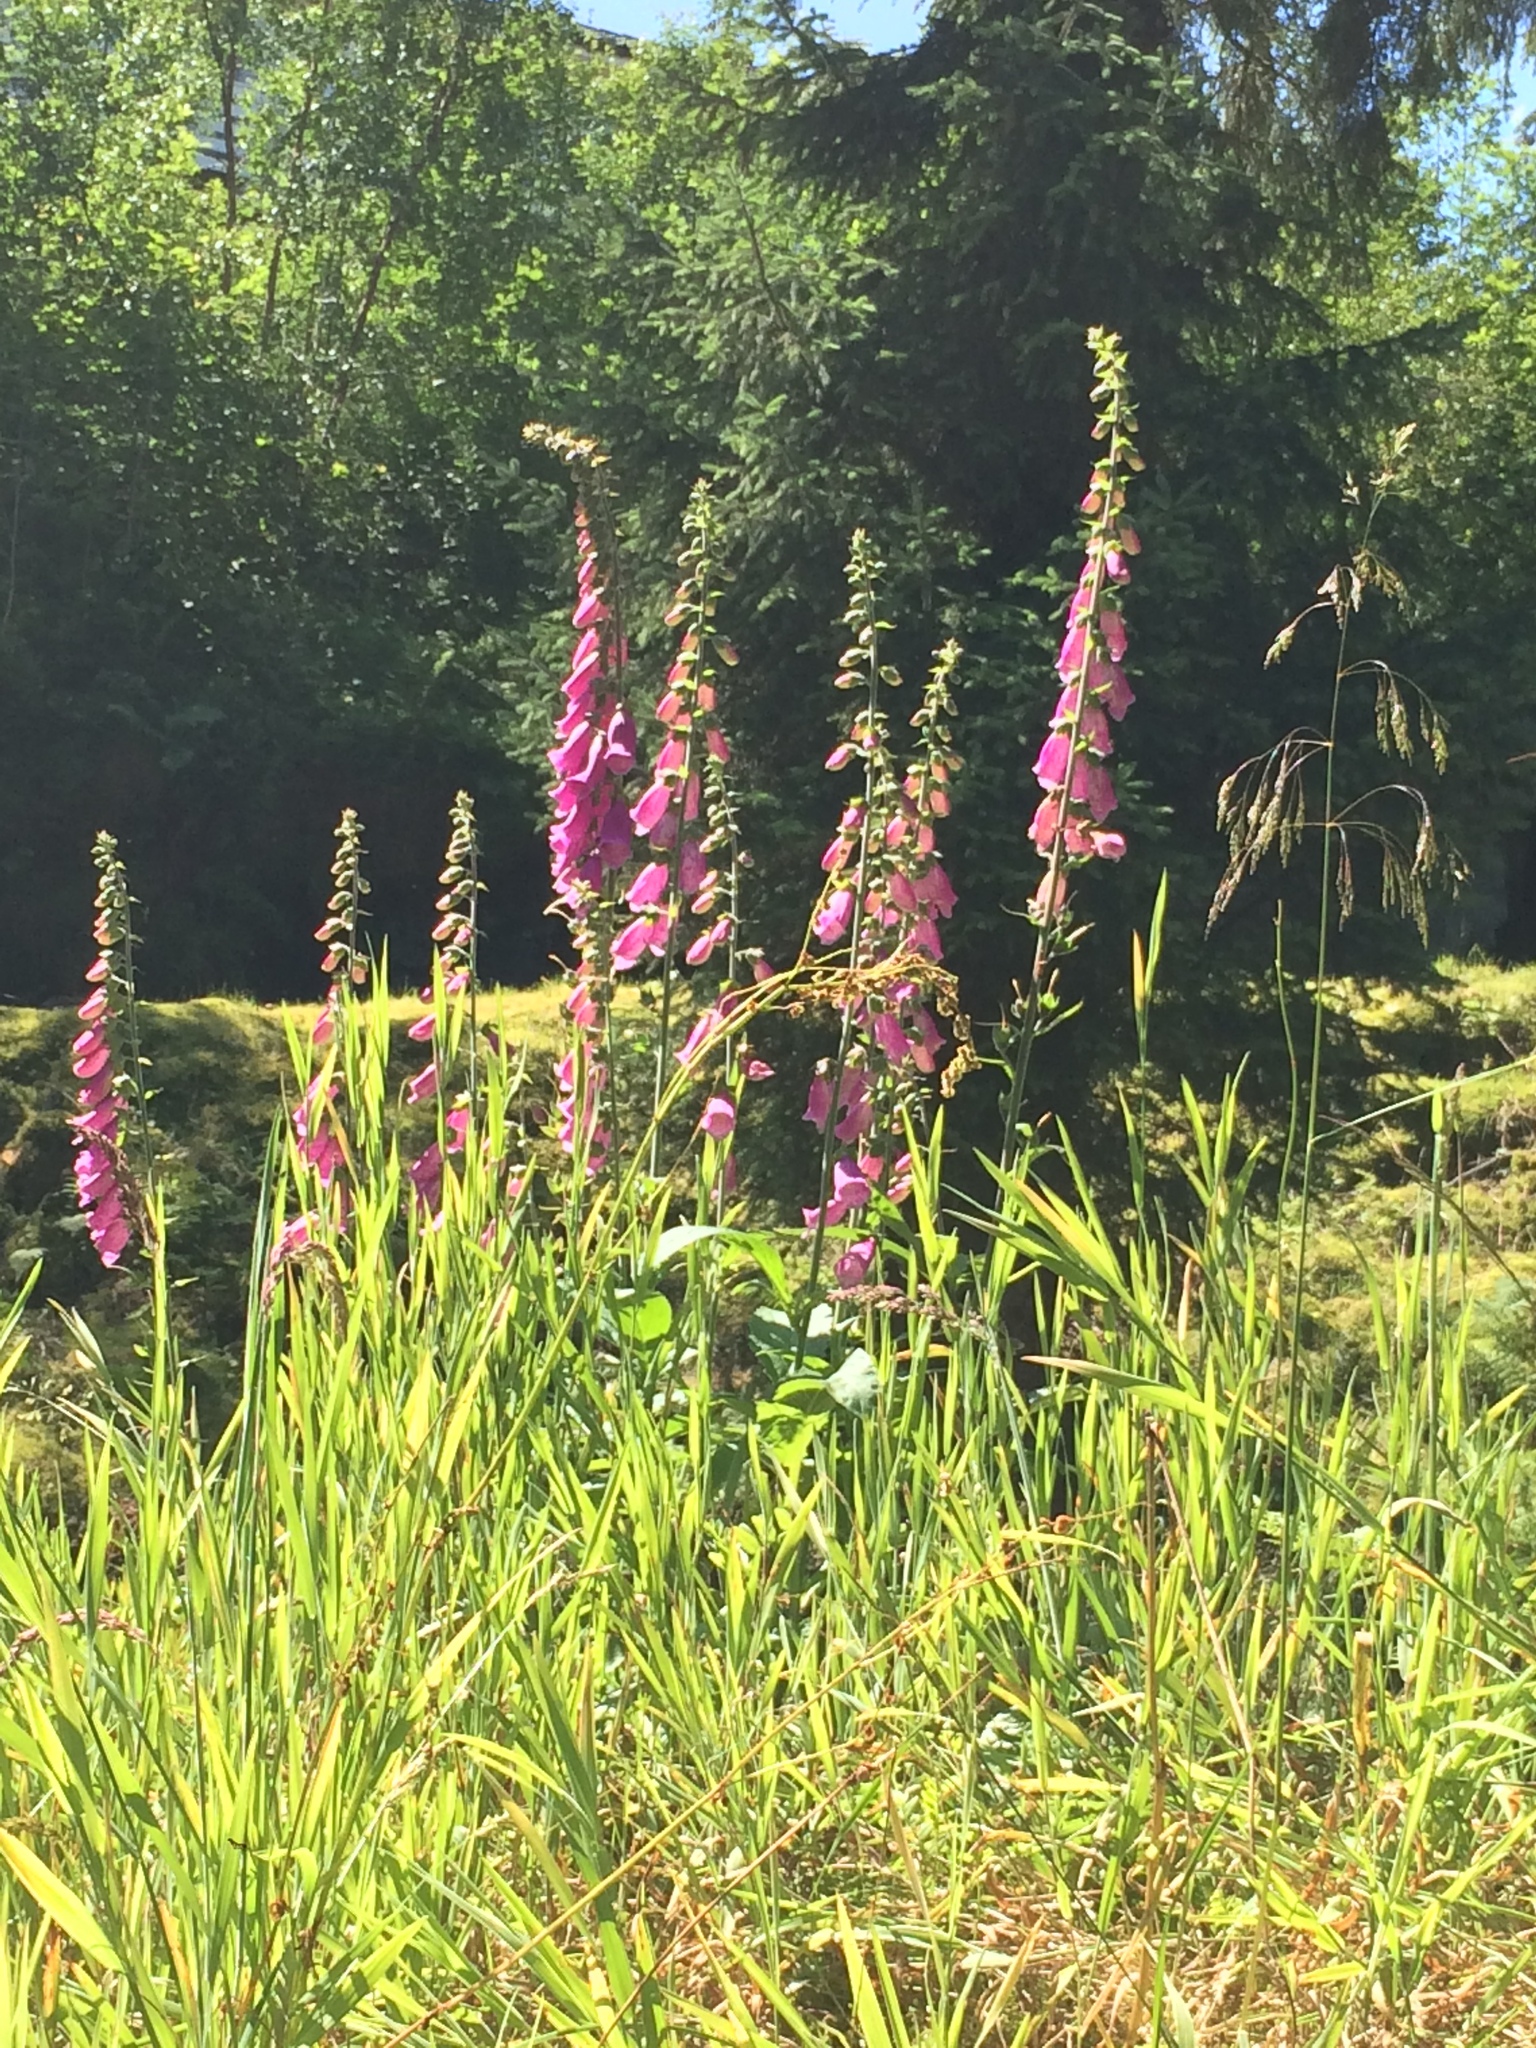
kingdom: Plantae
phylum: Tracheophyta
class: Magnoliopsida
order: Lamiales
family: Plantaginaceae
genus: Digitalis
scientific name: Digitalis purpurea
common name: Foxglove
